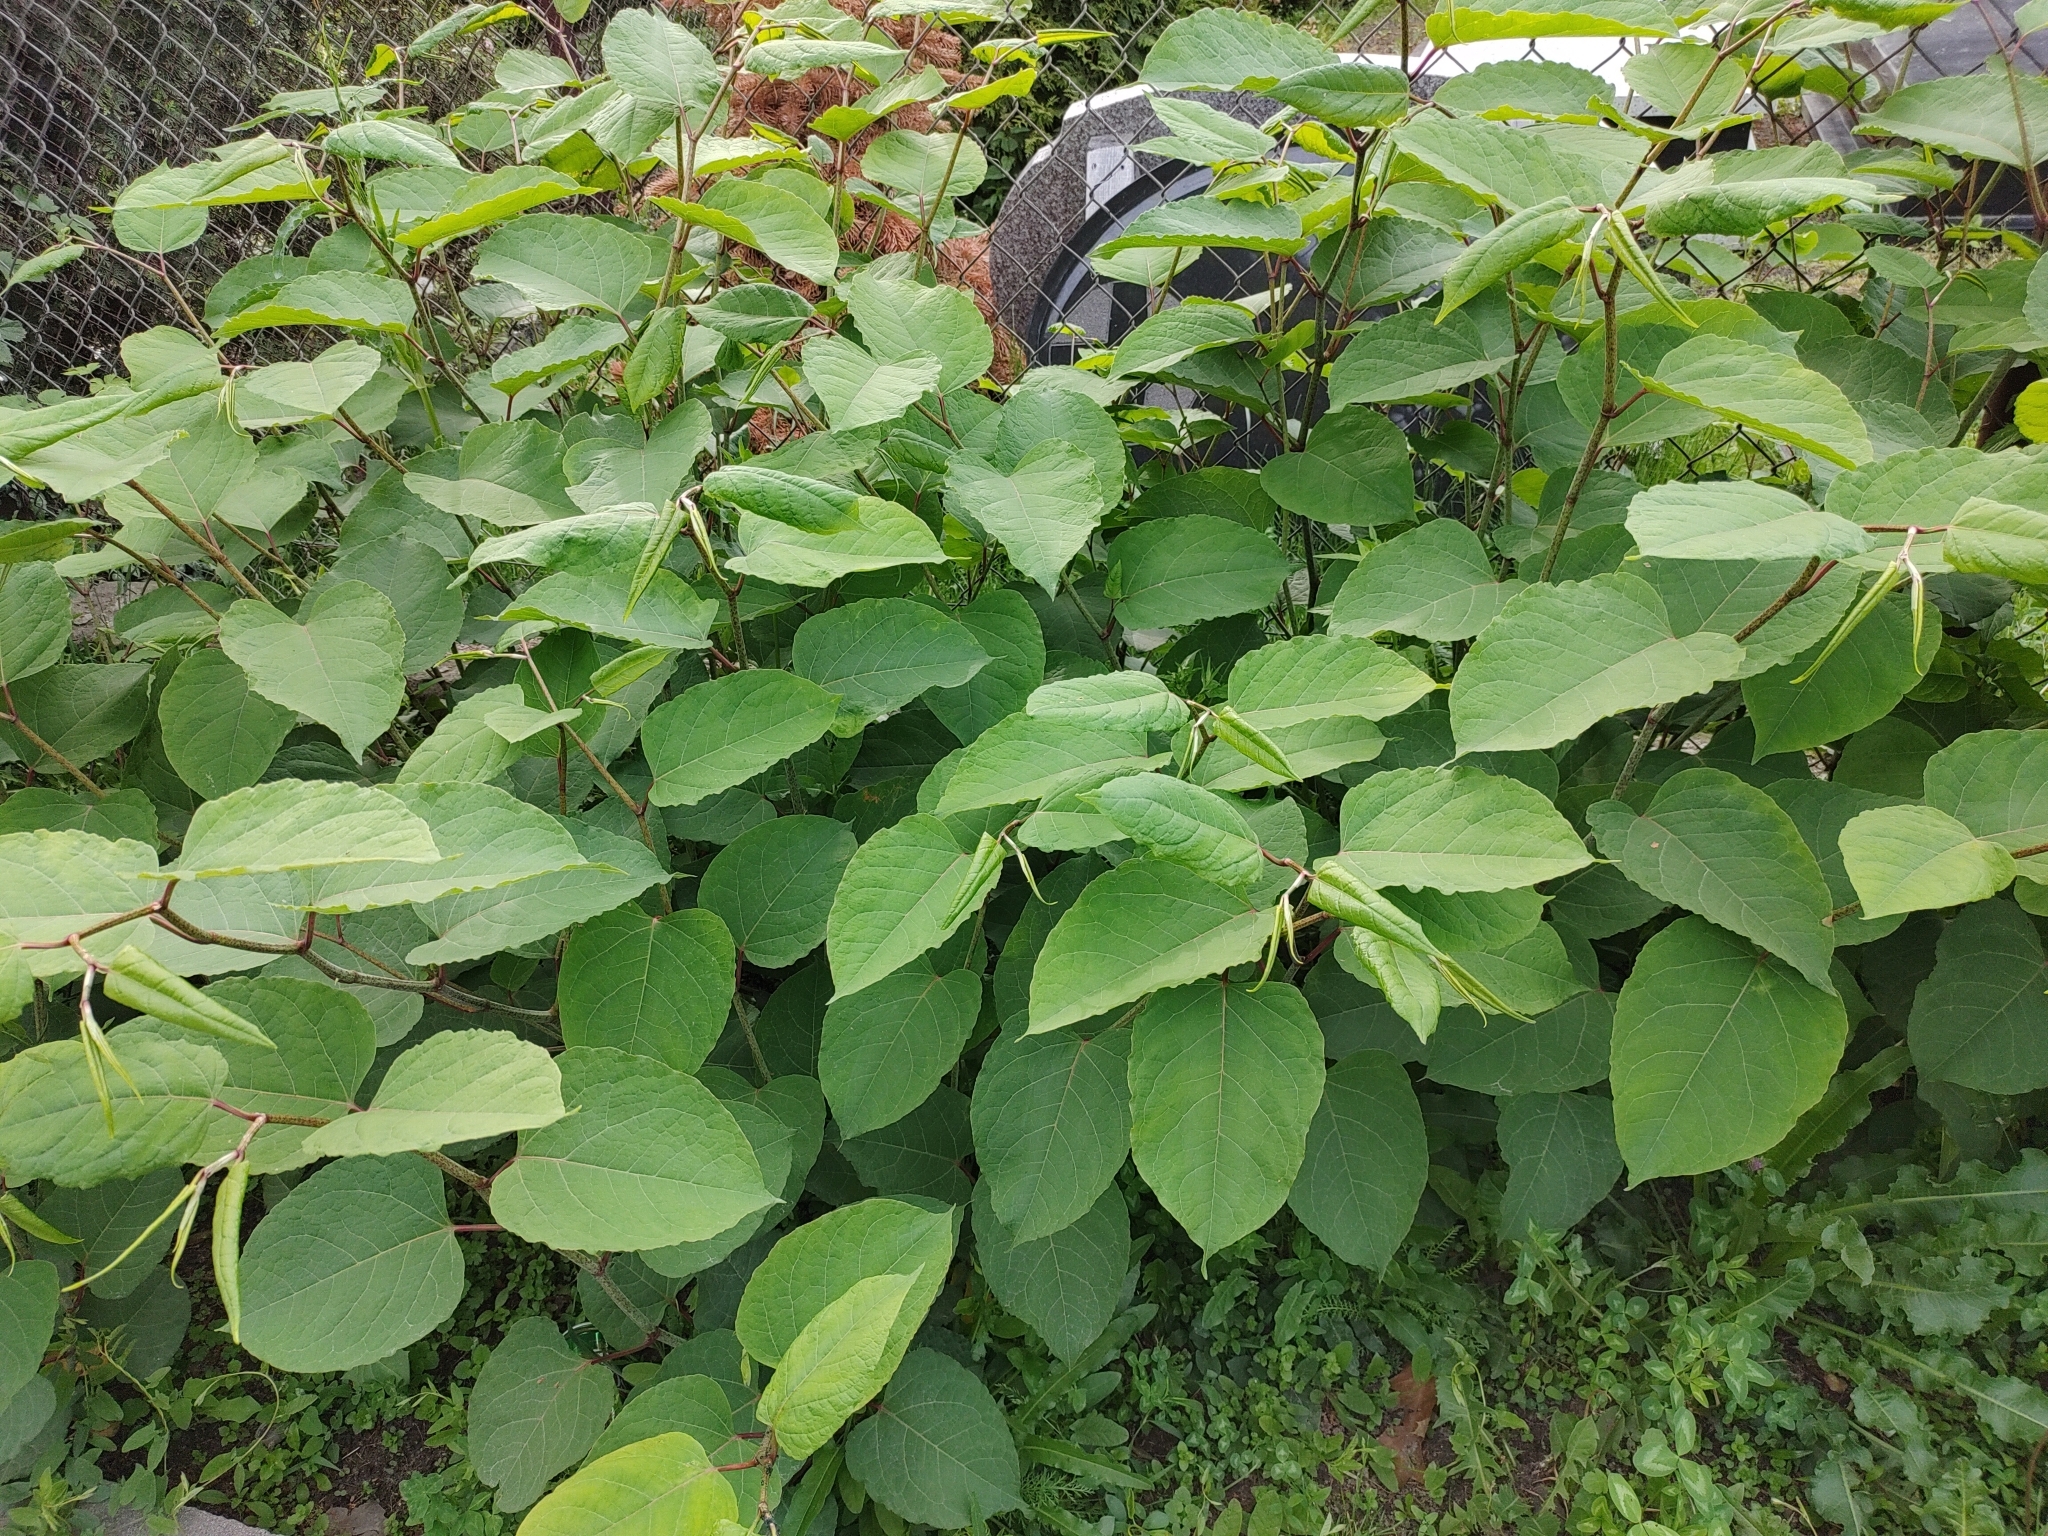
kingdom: Plantae
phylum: Tracheophyta
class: Magnoliopsida
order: Caryophyllales
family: Polygonaceae
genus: Reynoutria
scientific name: Reynoutria bohemica
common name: Bohemian knotweed
